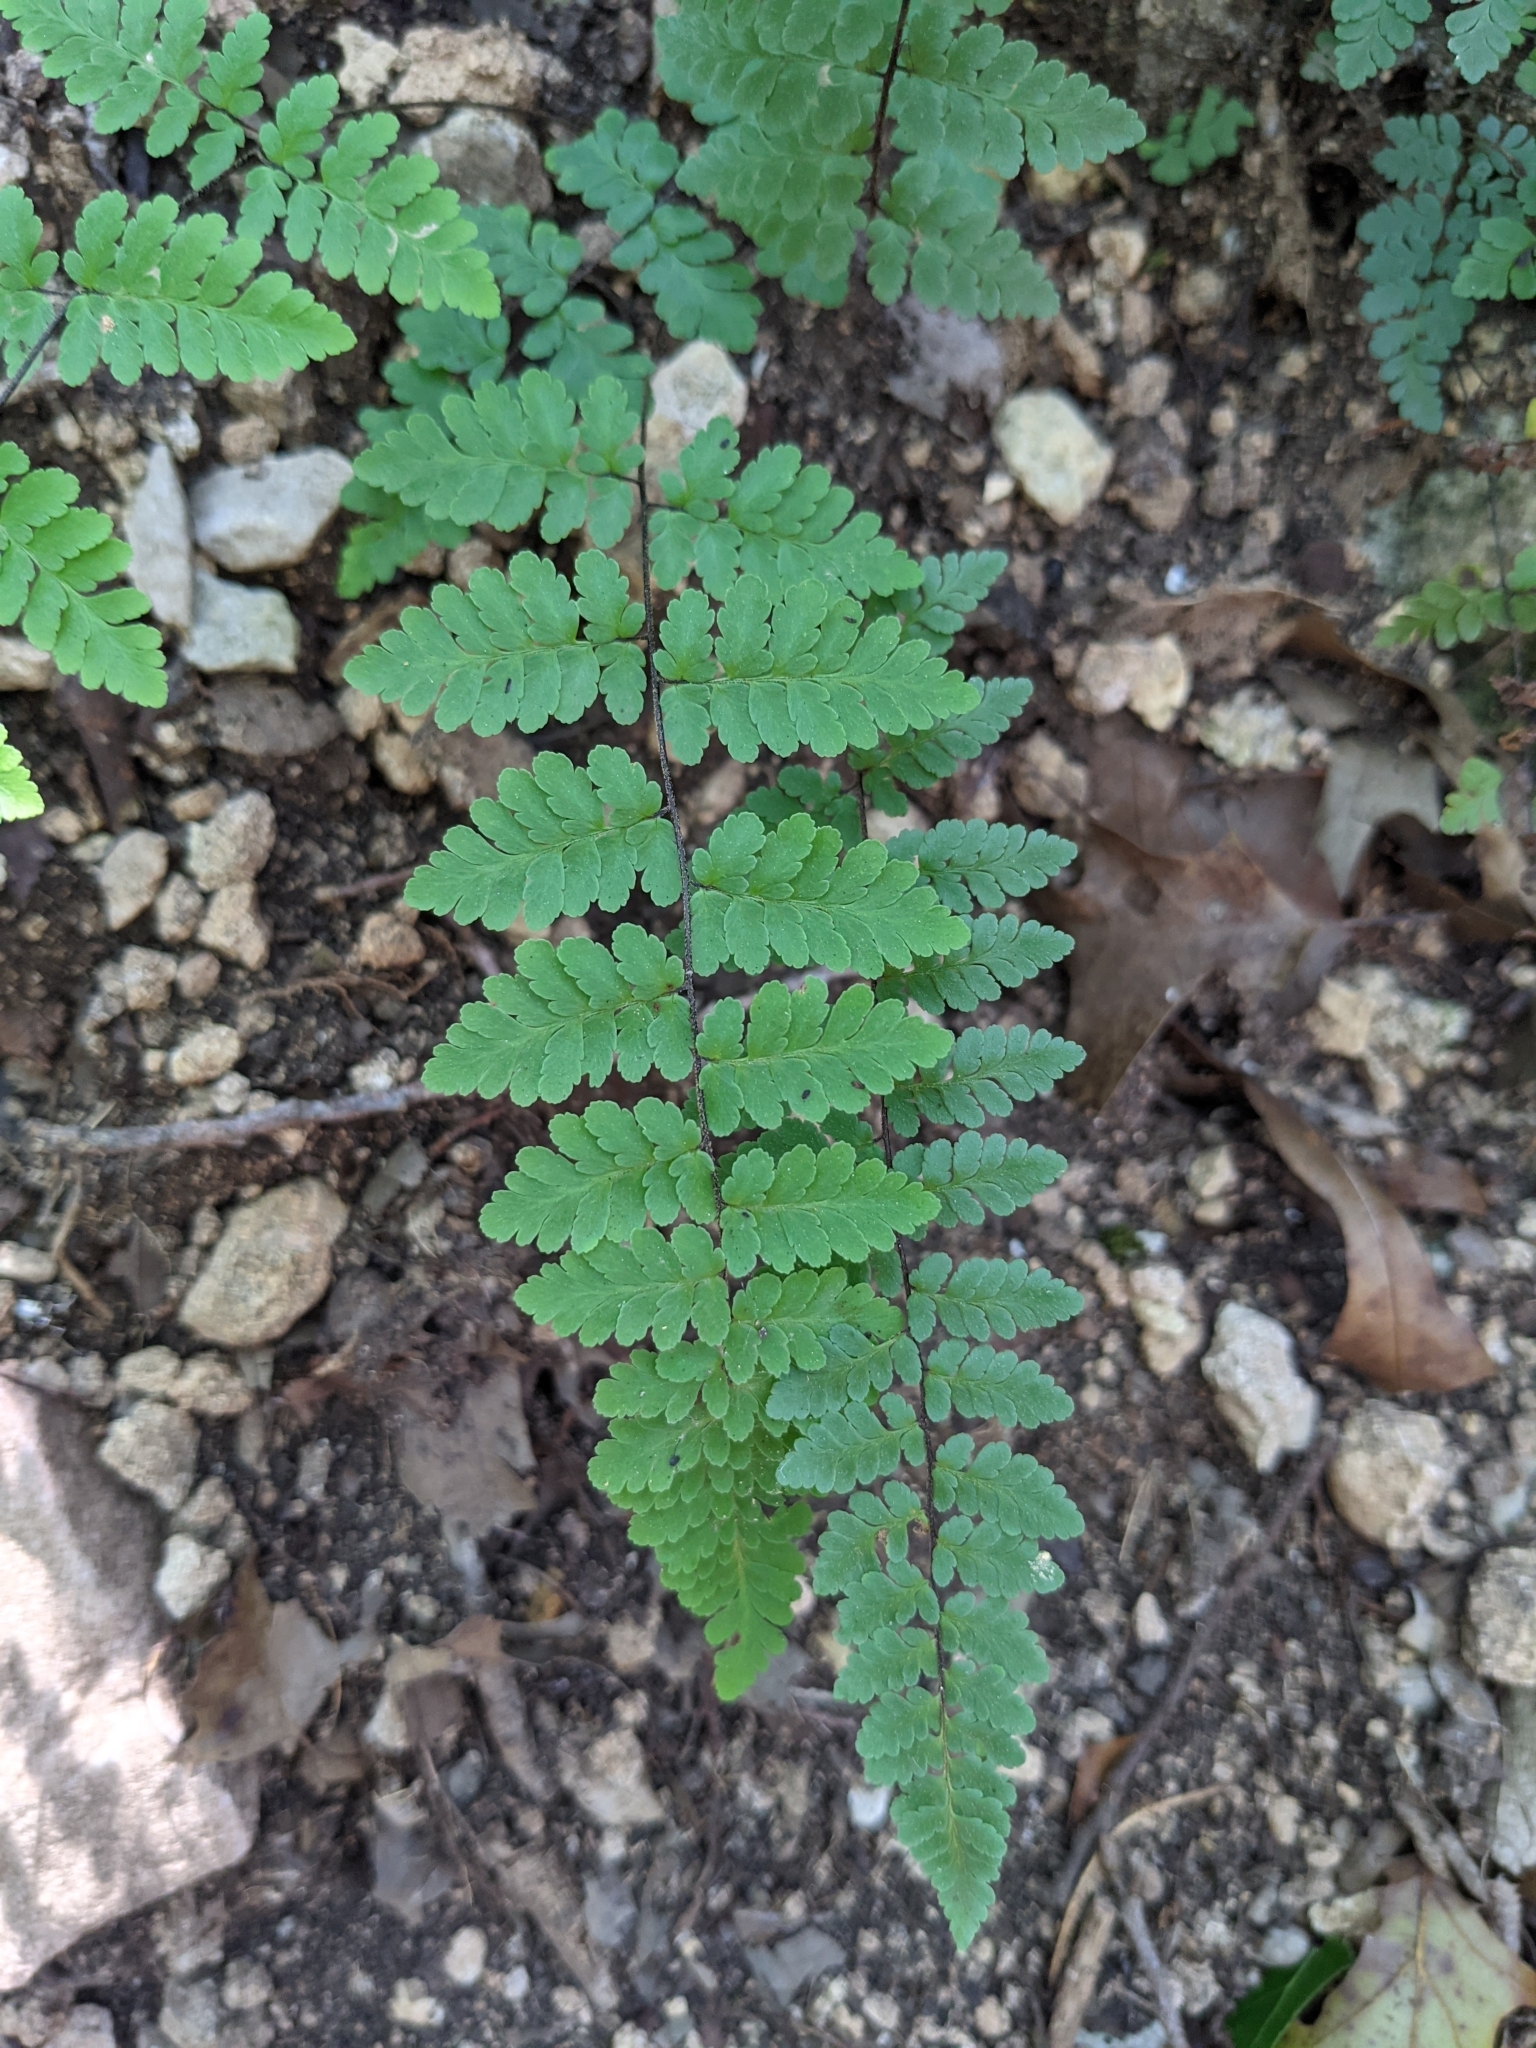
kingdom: Plantae
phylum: Tracheophyta
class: Polypodiopsida
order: Polypodiales
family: Pteridaceae
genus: Myriopteris
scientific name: Myriopteris alabamensis
